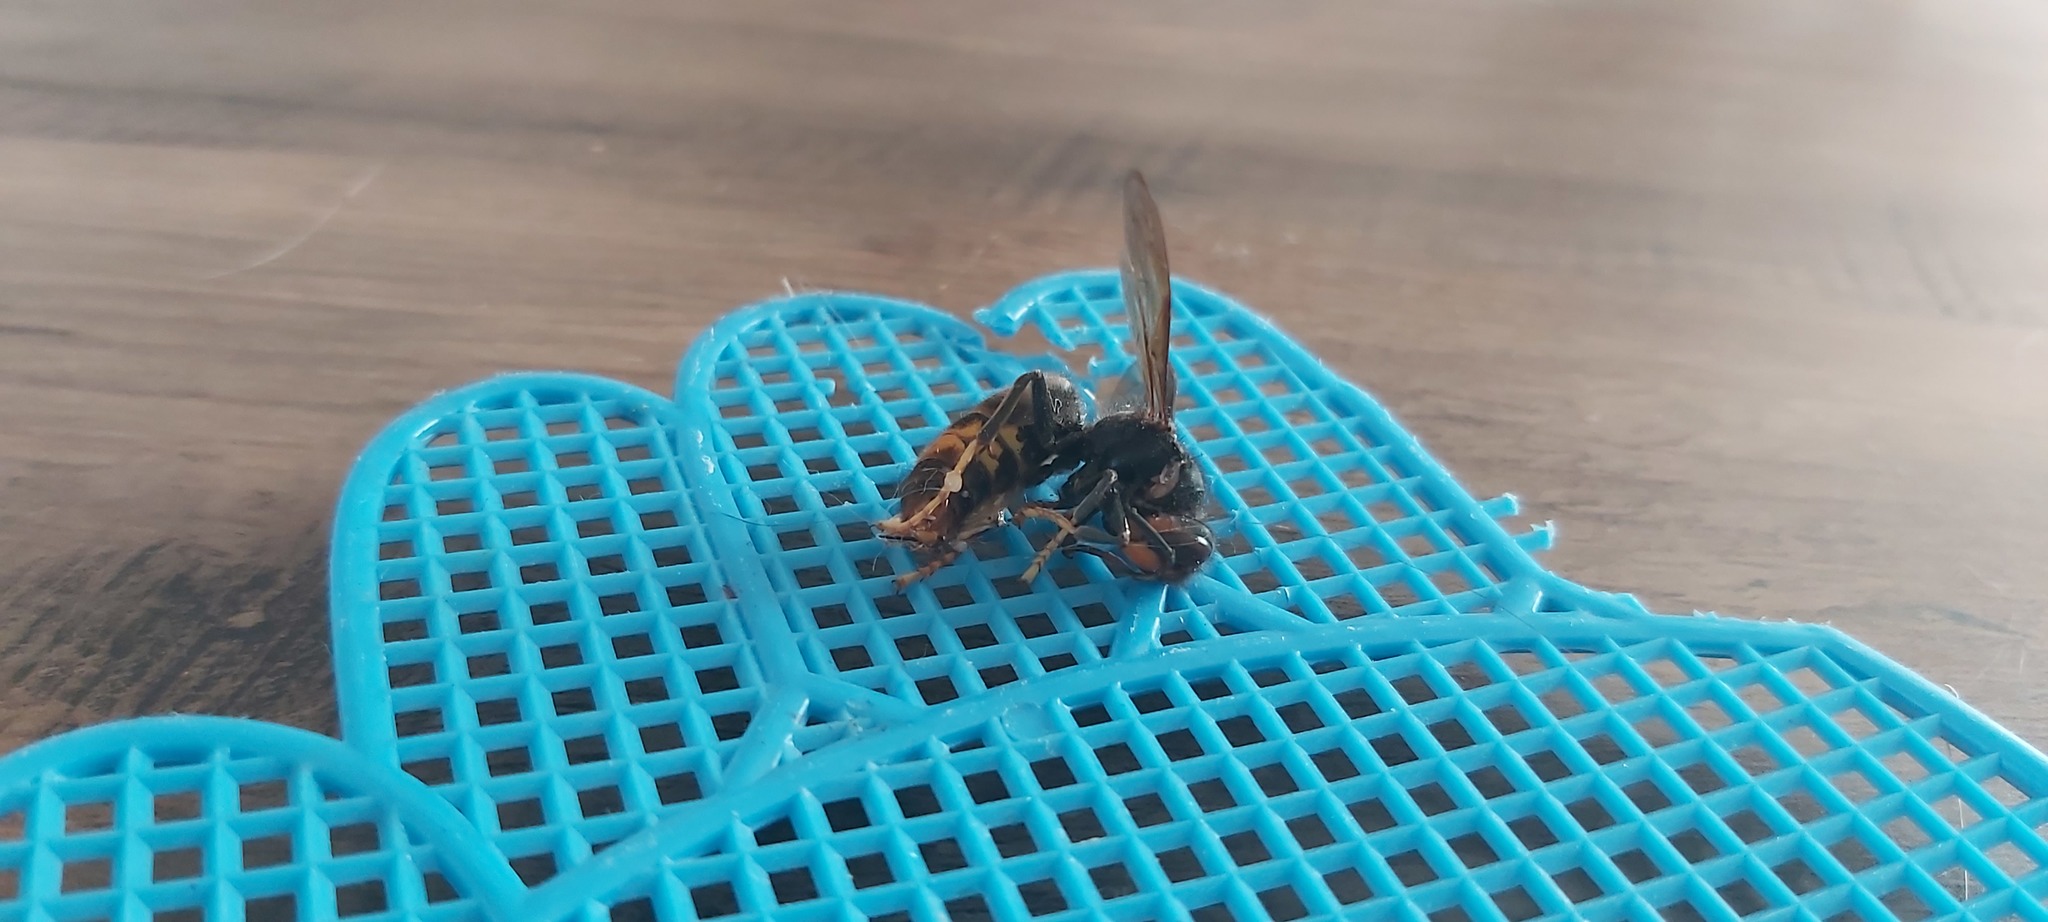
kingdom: Animalia
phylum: Arthropoda
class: Insecta
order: Hymenoptera
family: Vespidae
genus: Vespa
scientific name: Vespa velutina
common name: Asian hornet
